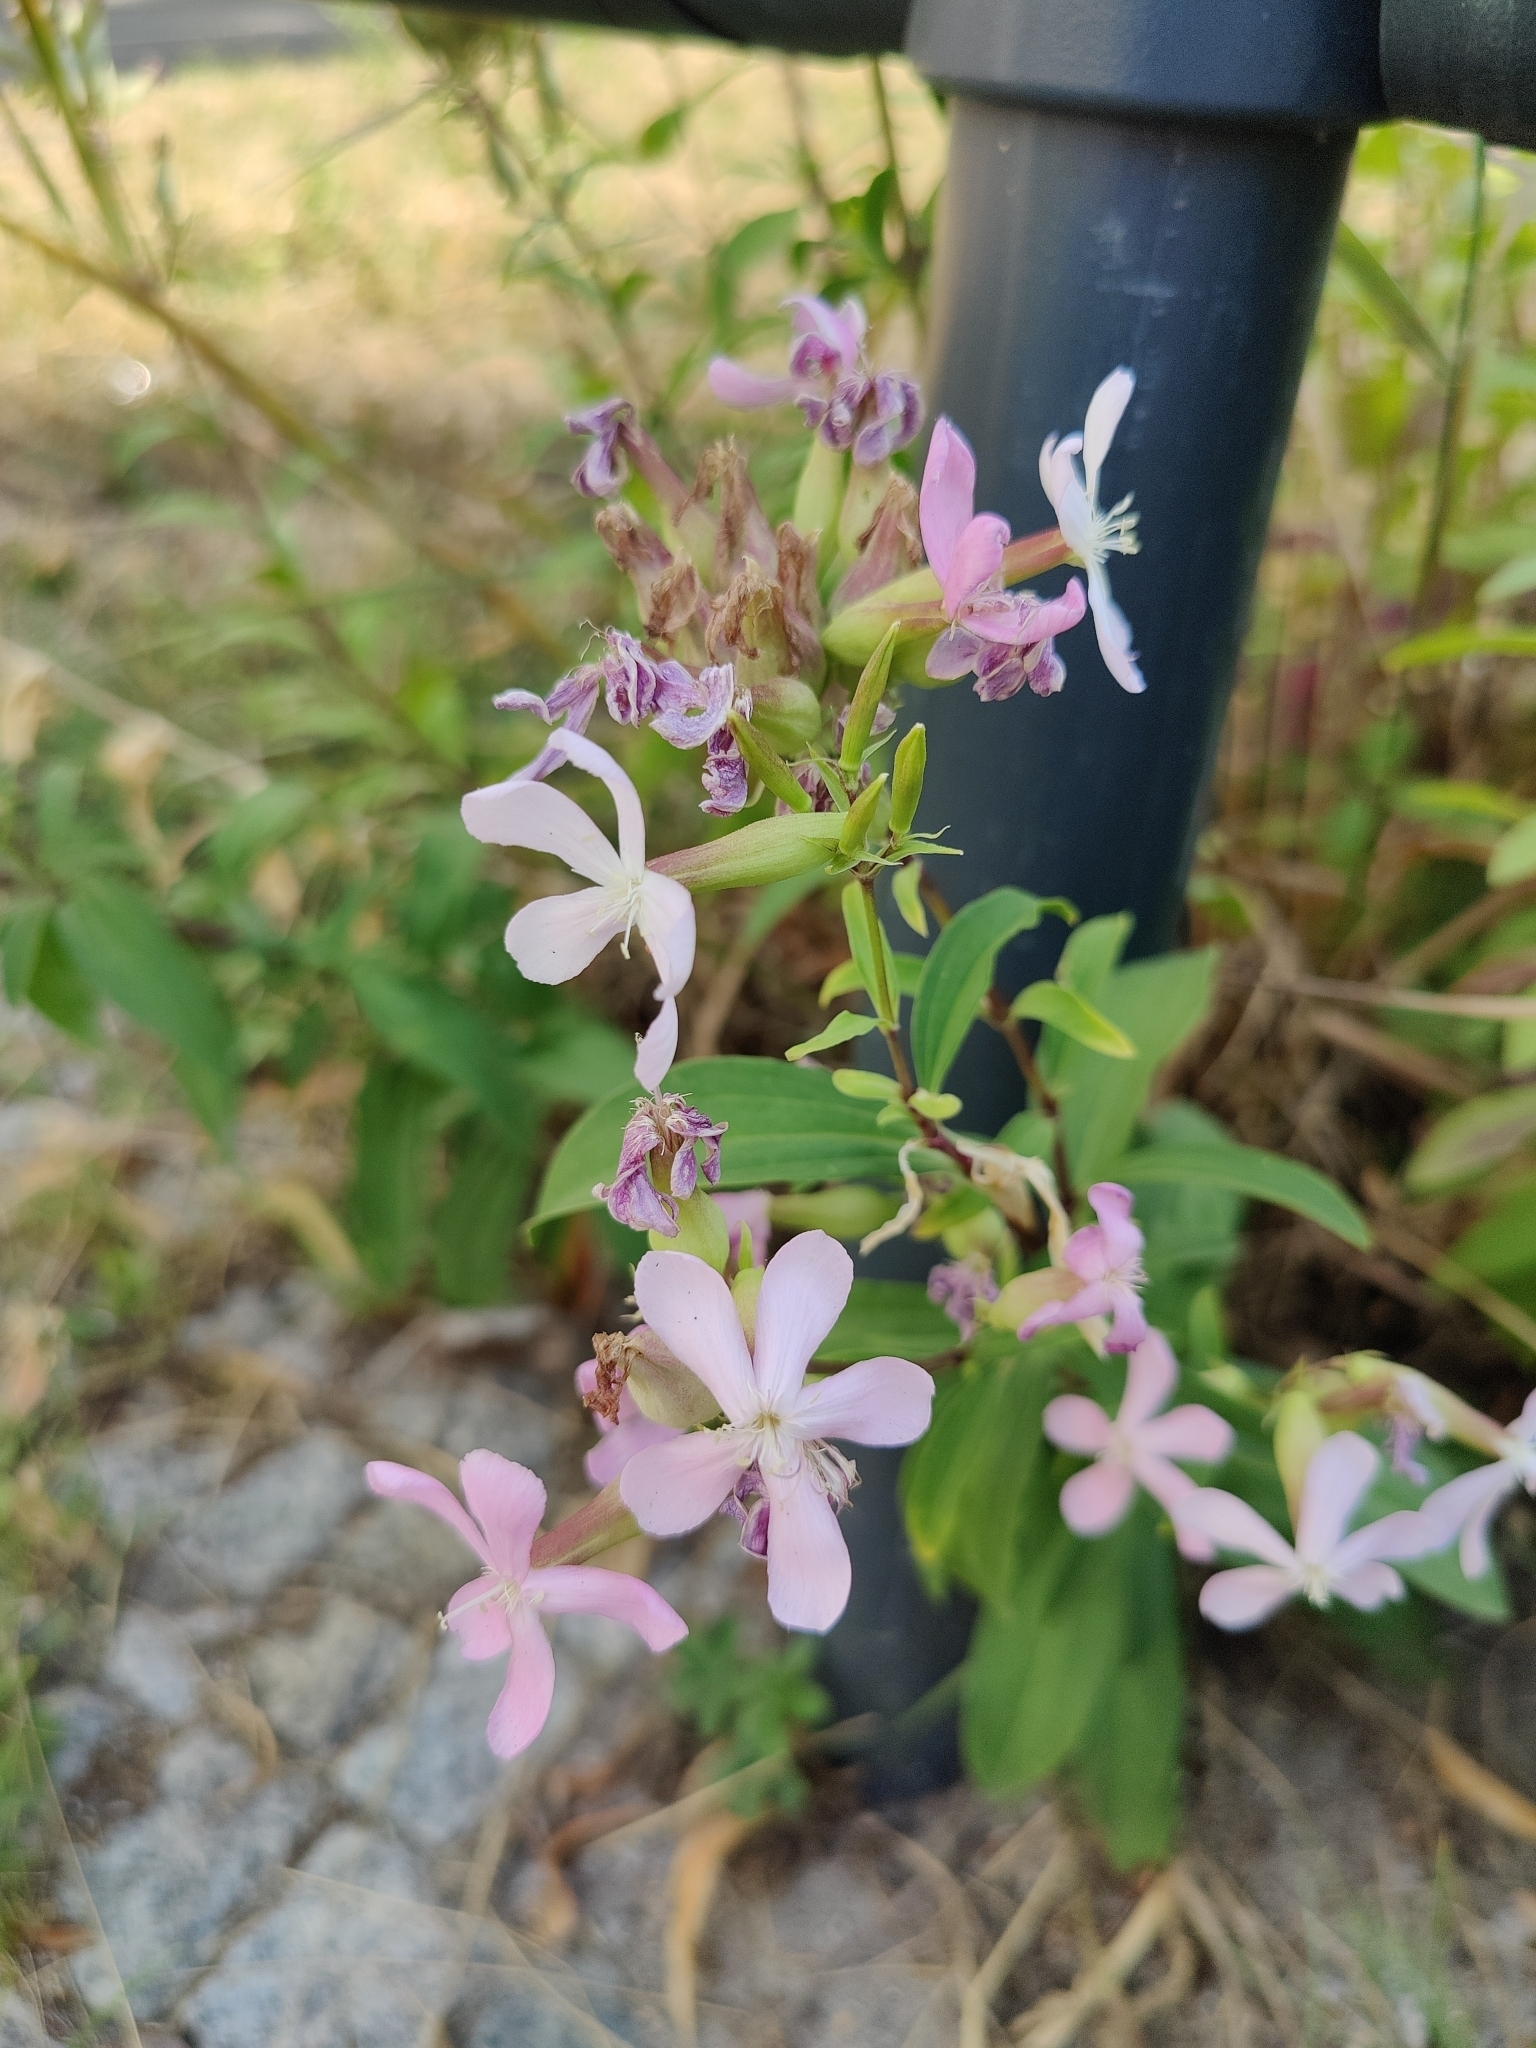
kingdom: Plantae
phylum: Tracheophyta
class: Magnoliopsida
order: Caryophyllales
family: Caryophyllaceae
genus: Saponaria
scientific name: Saponaria officinalis
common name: Soapwort
